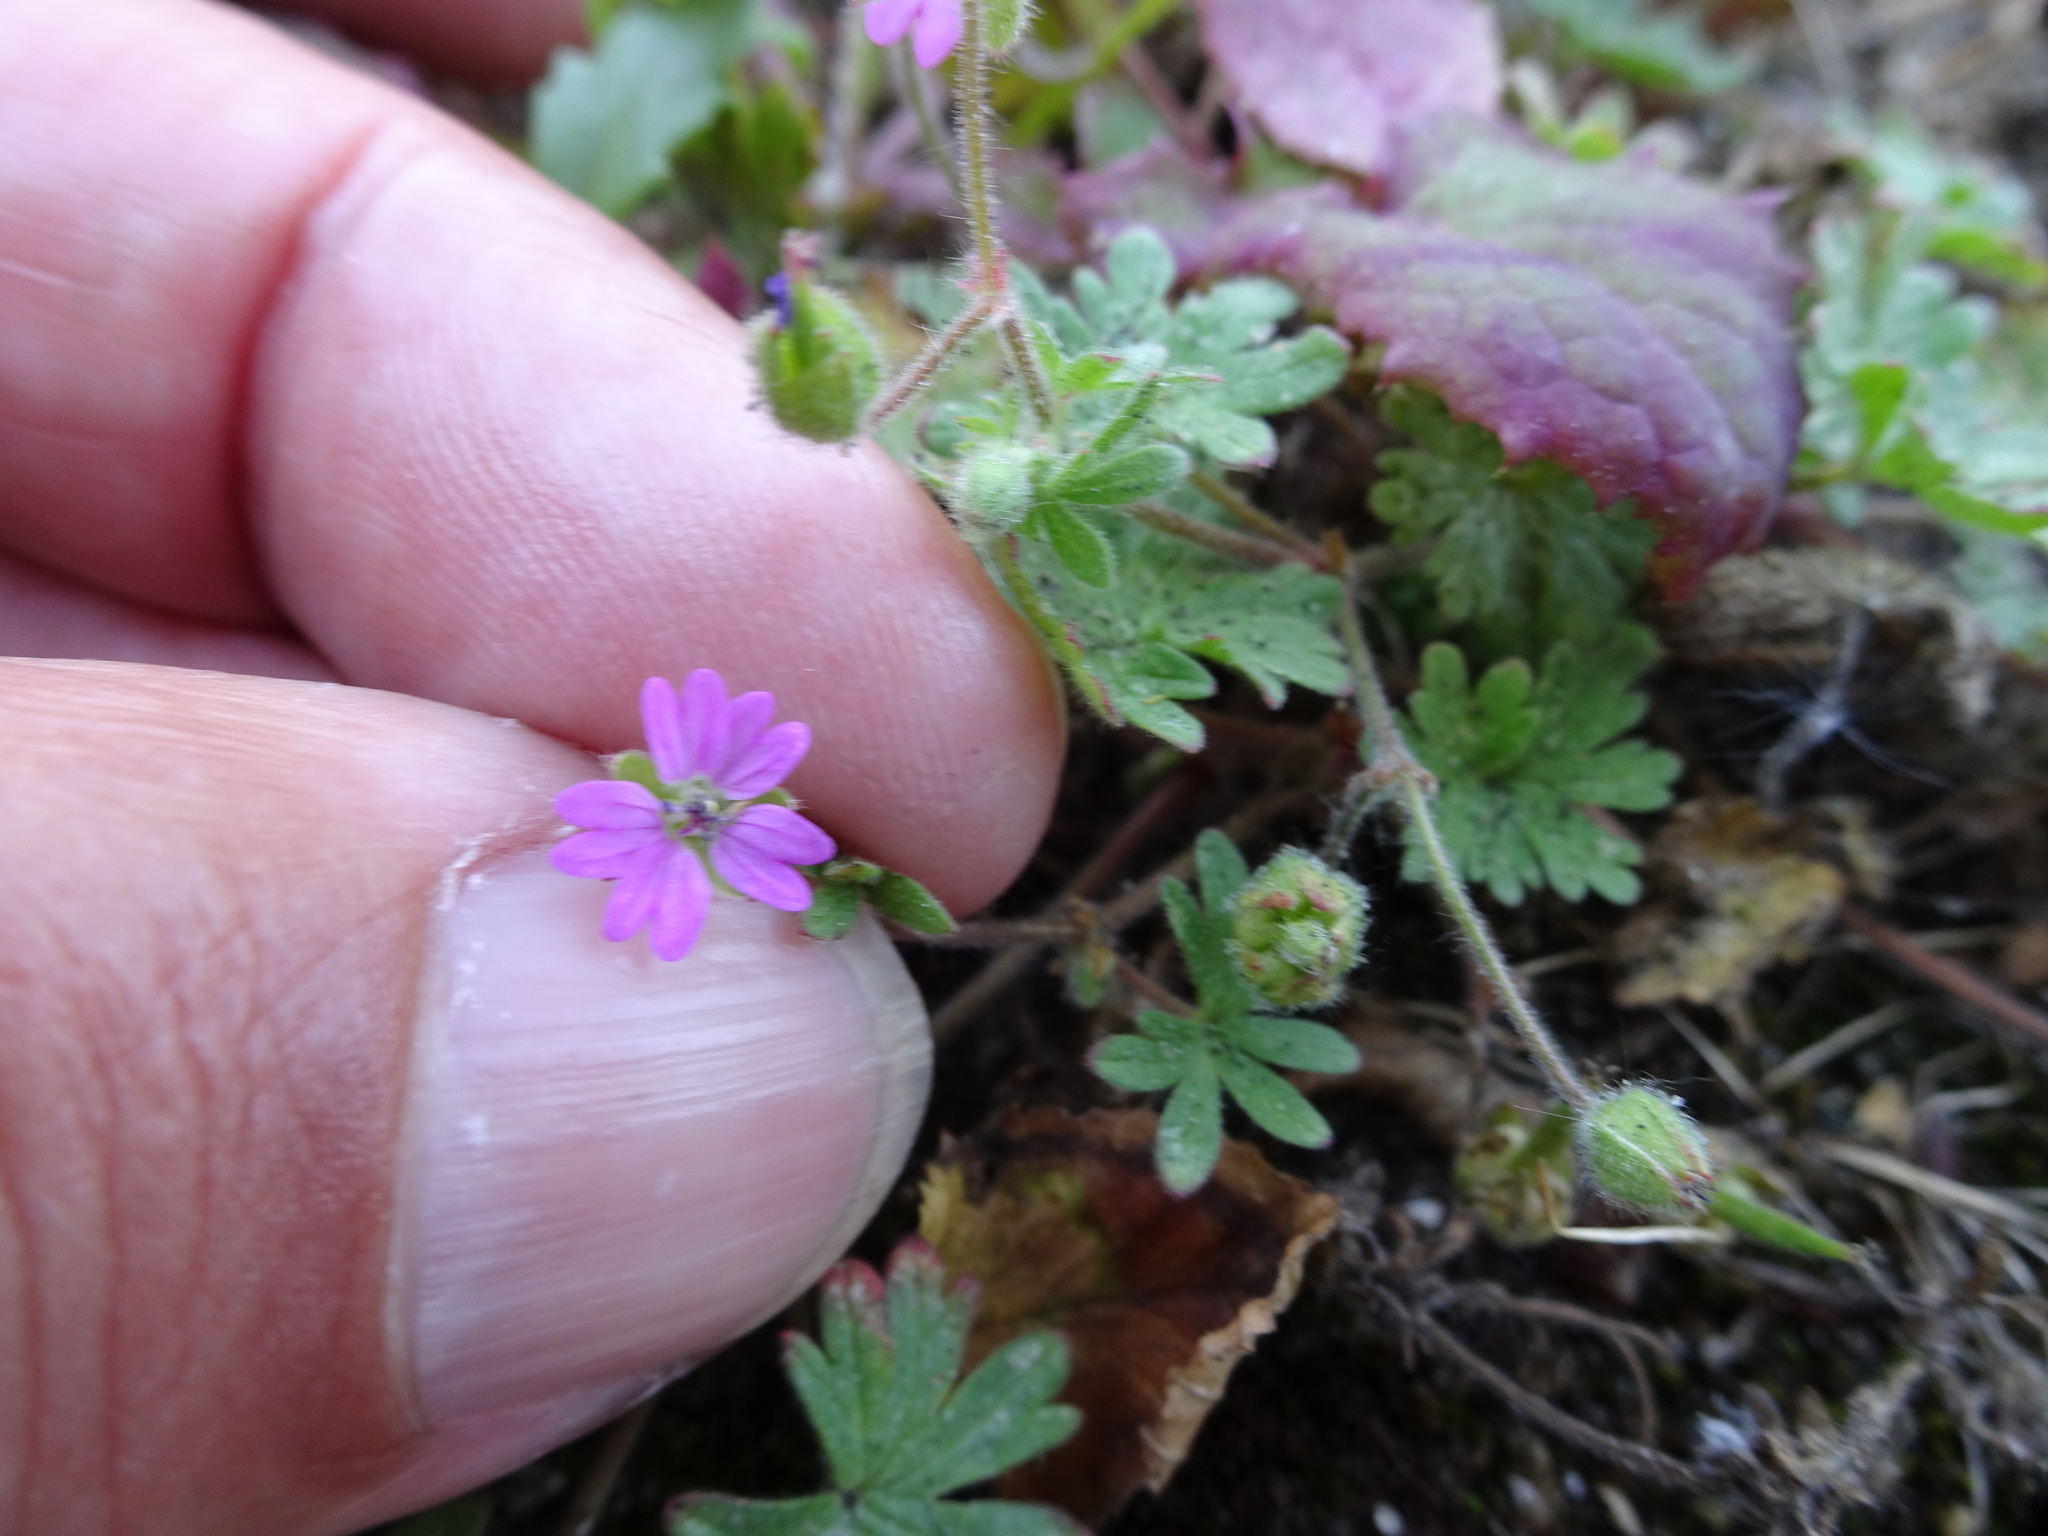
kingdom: Plantae
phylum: Tracheophyta
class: Magnoliopsida
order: Geraniales
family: Geraniaceae
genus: Geranium
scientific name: Geranium pusillum
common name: Small geranium
